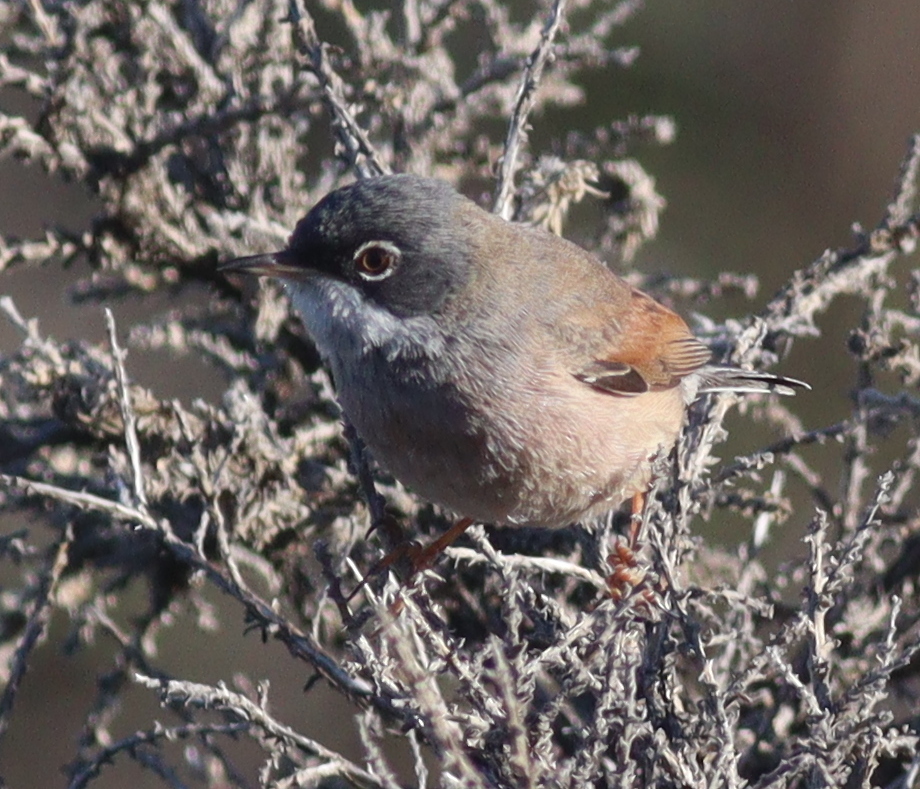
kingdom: Animalia
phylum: Chordata
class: Aves
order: Passeriformes
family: Sylviidae
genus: Sylvia
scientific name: Sylvia conspicillata
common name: Spectacled warbler
